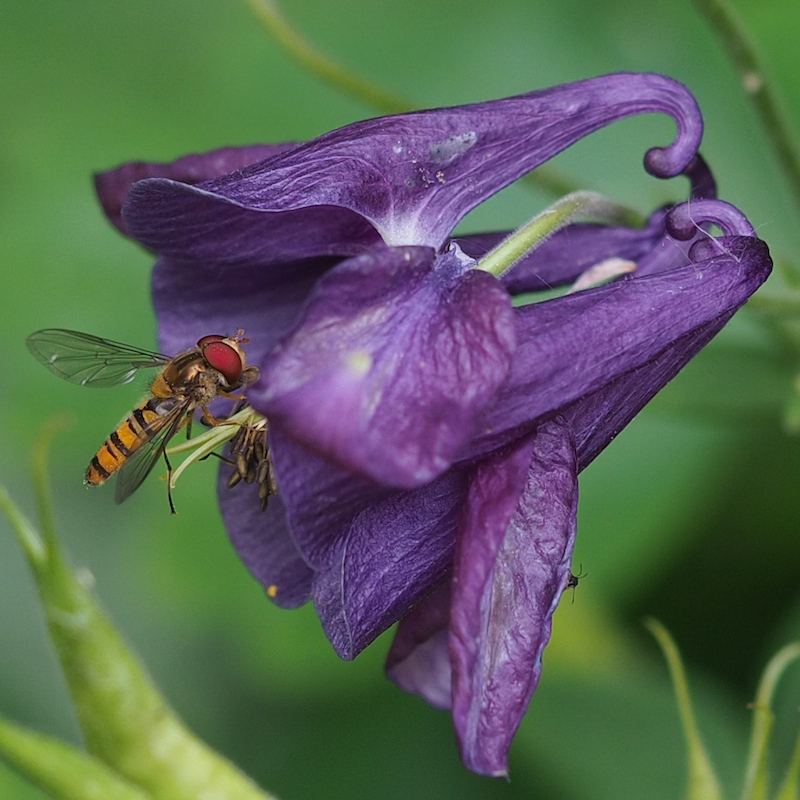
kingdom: Animalia
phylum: Arthropoda
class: Insecta
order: Diptera
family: Syrphidae
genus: Episyrphus
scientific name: Episyrphus balteatus
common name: Marmalade hoverfly
